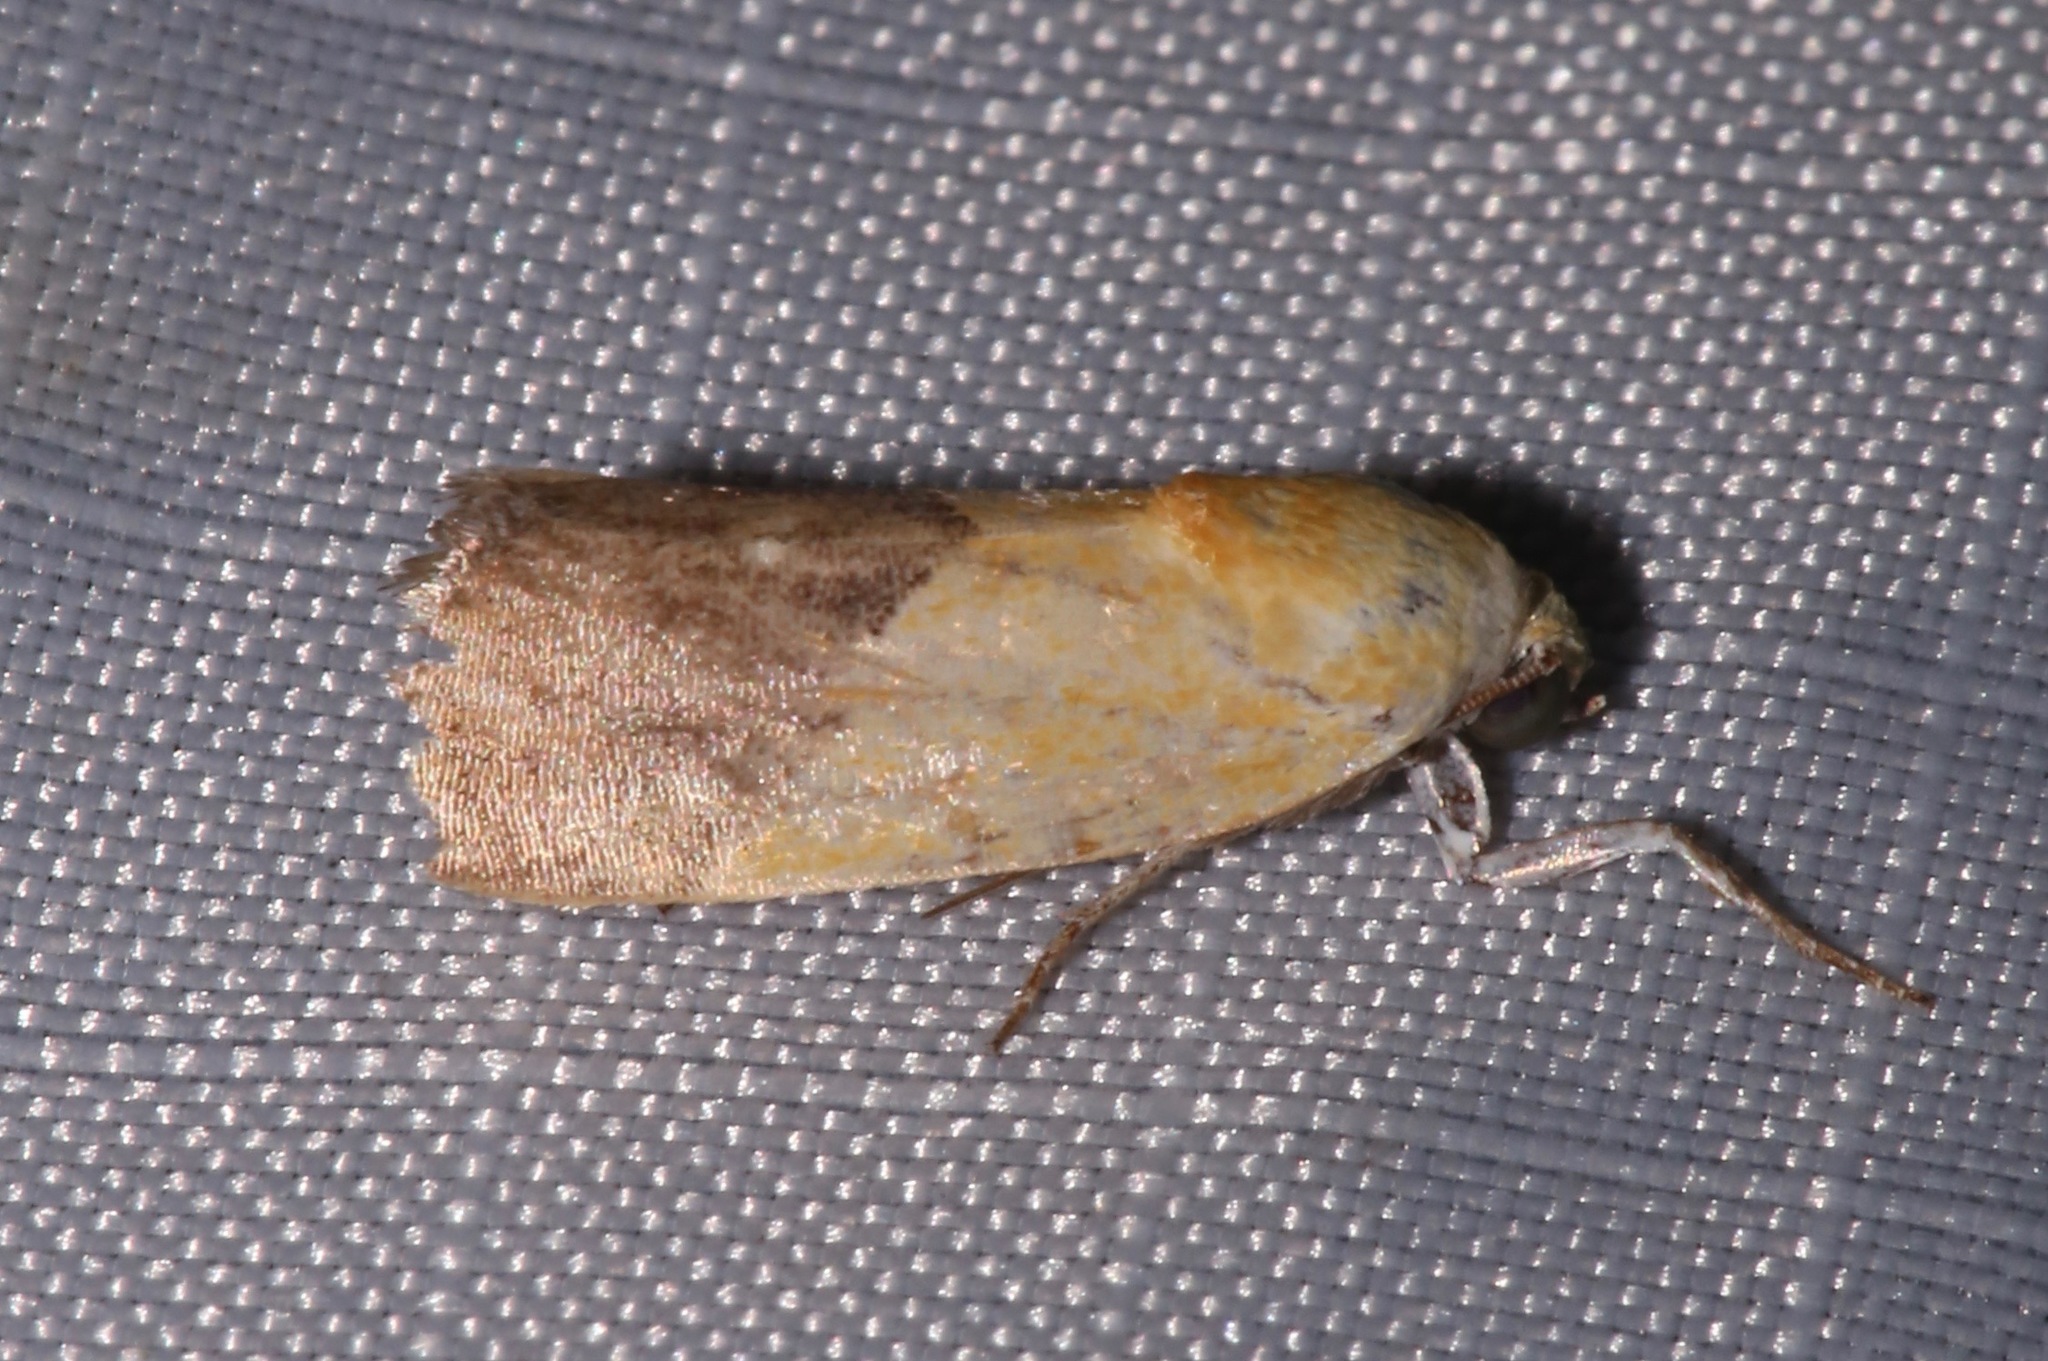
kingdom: Animalia
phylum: Arthropoda
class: Insecta
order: Lepidoptera
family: Noctuidae
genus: Acontia
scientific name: Acontia semiflava
